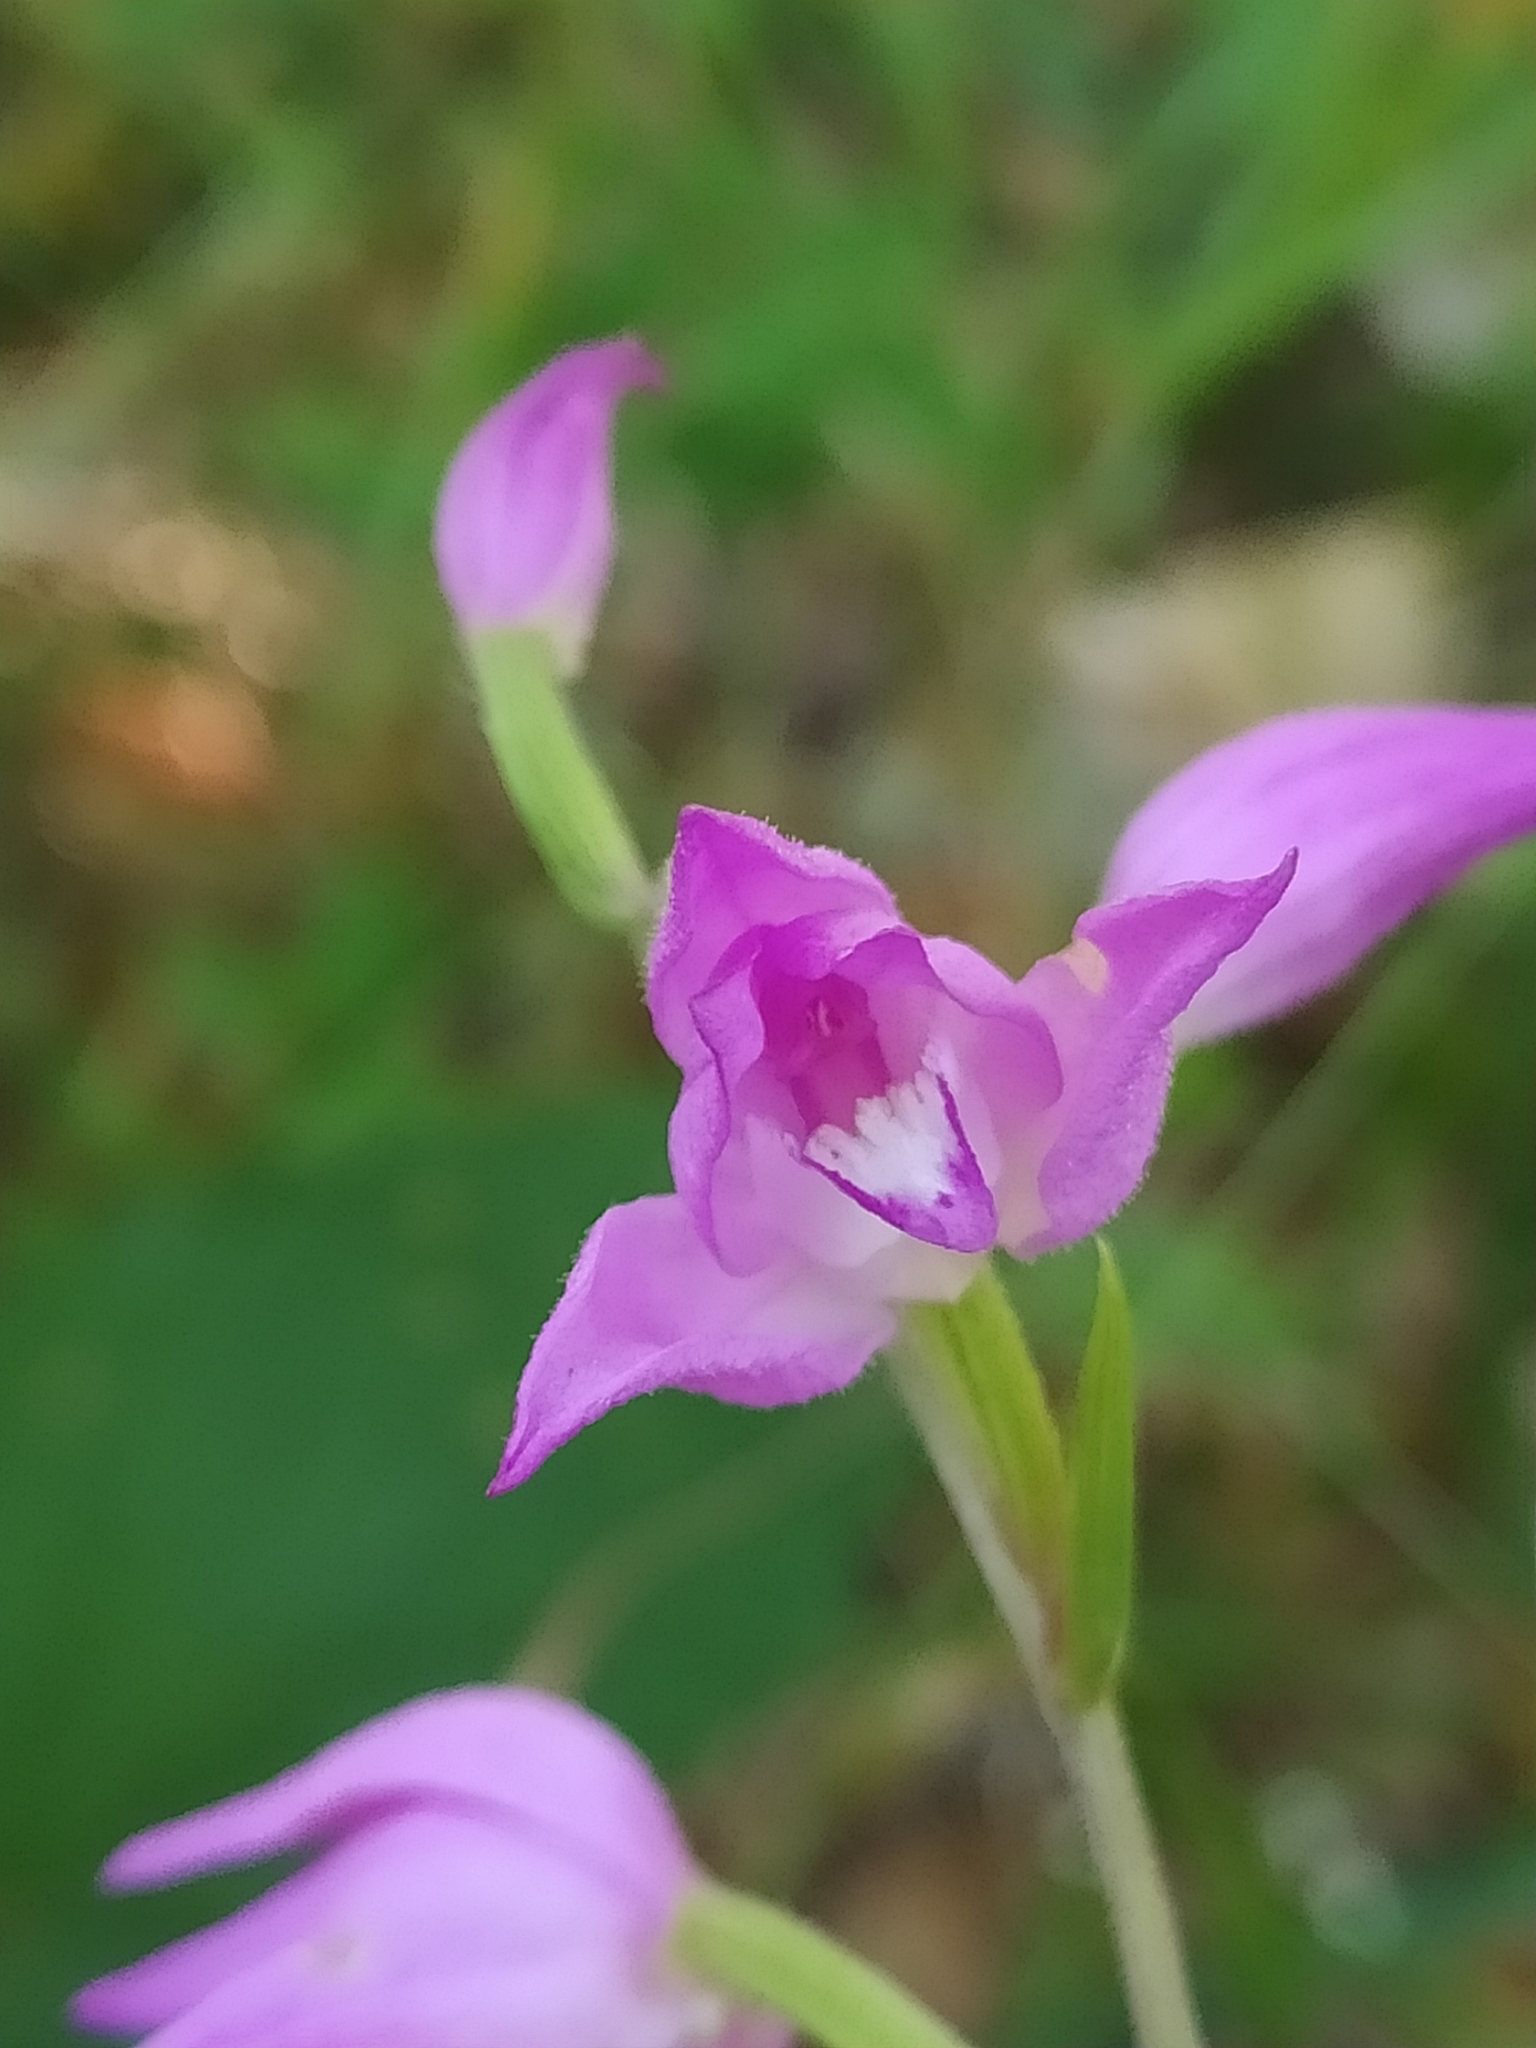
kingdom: Plantae
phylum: Tracheophyta
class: Liliopsida
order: Asparagales
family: Orchidaceae
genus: Cephalanthera
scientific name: Cephalanthera rubra
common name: Red helleborine
